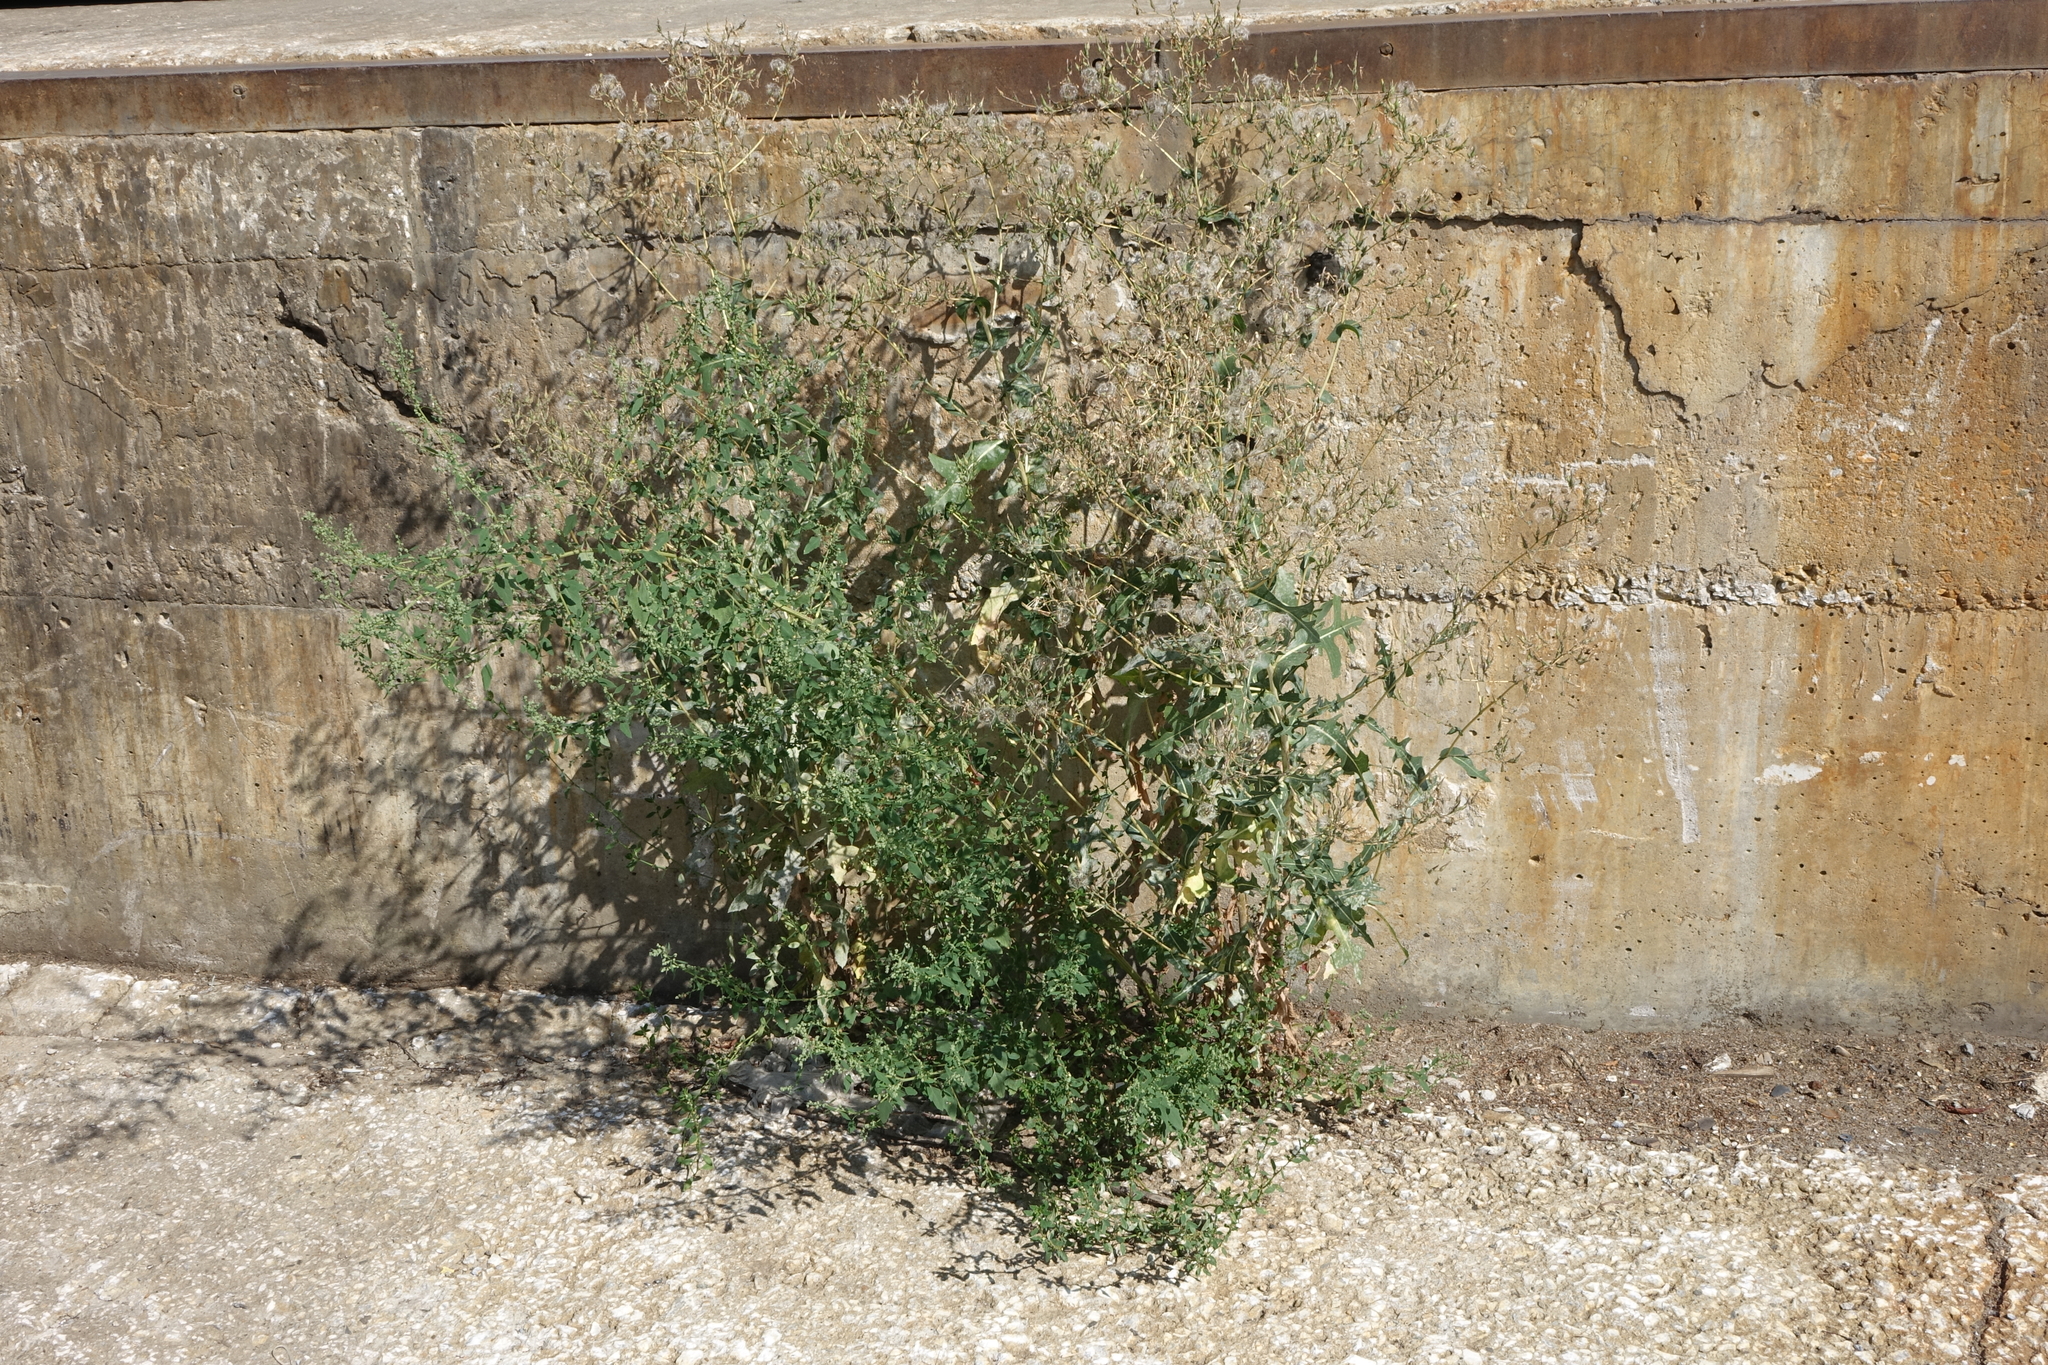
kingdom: Plantae
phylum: Tracheophyta
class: Magnoliopsida
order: Asterales
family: Asteraceae
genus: Lactuca
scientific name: Lactuca serriola
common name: Prickly lettuce
